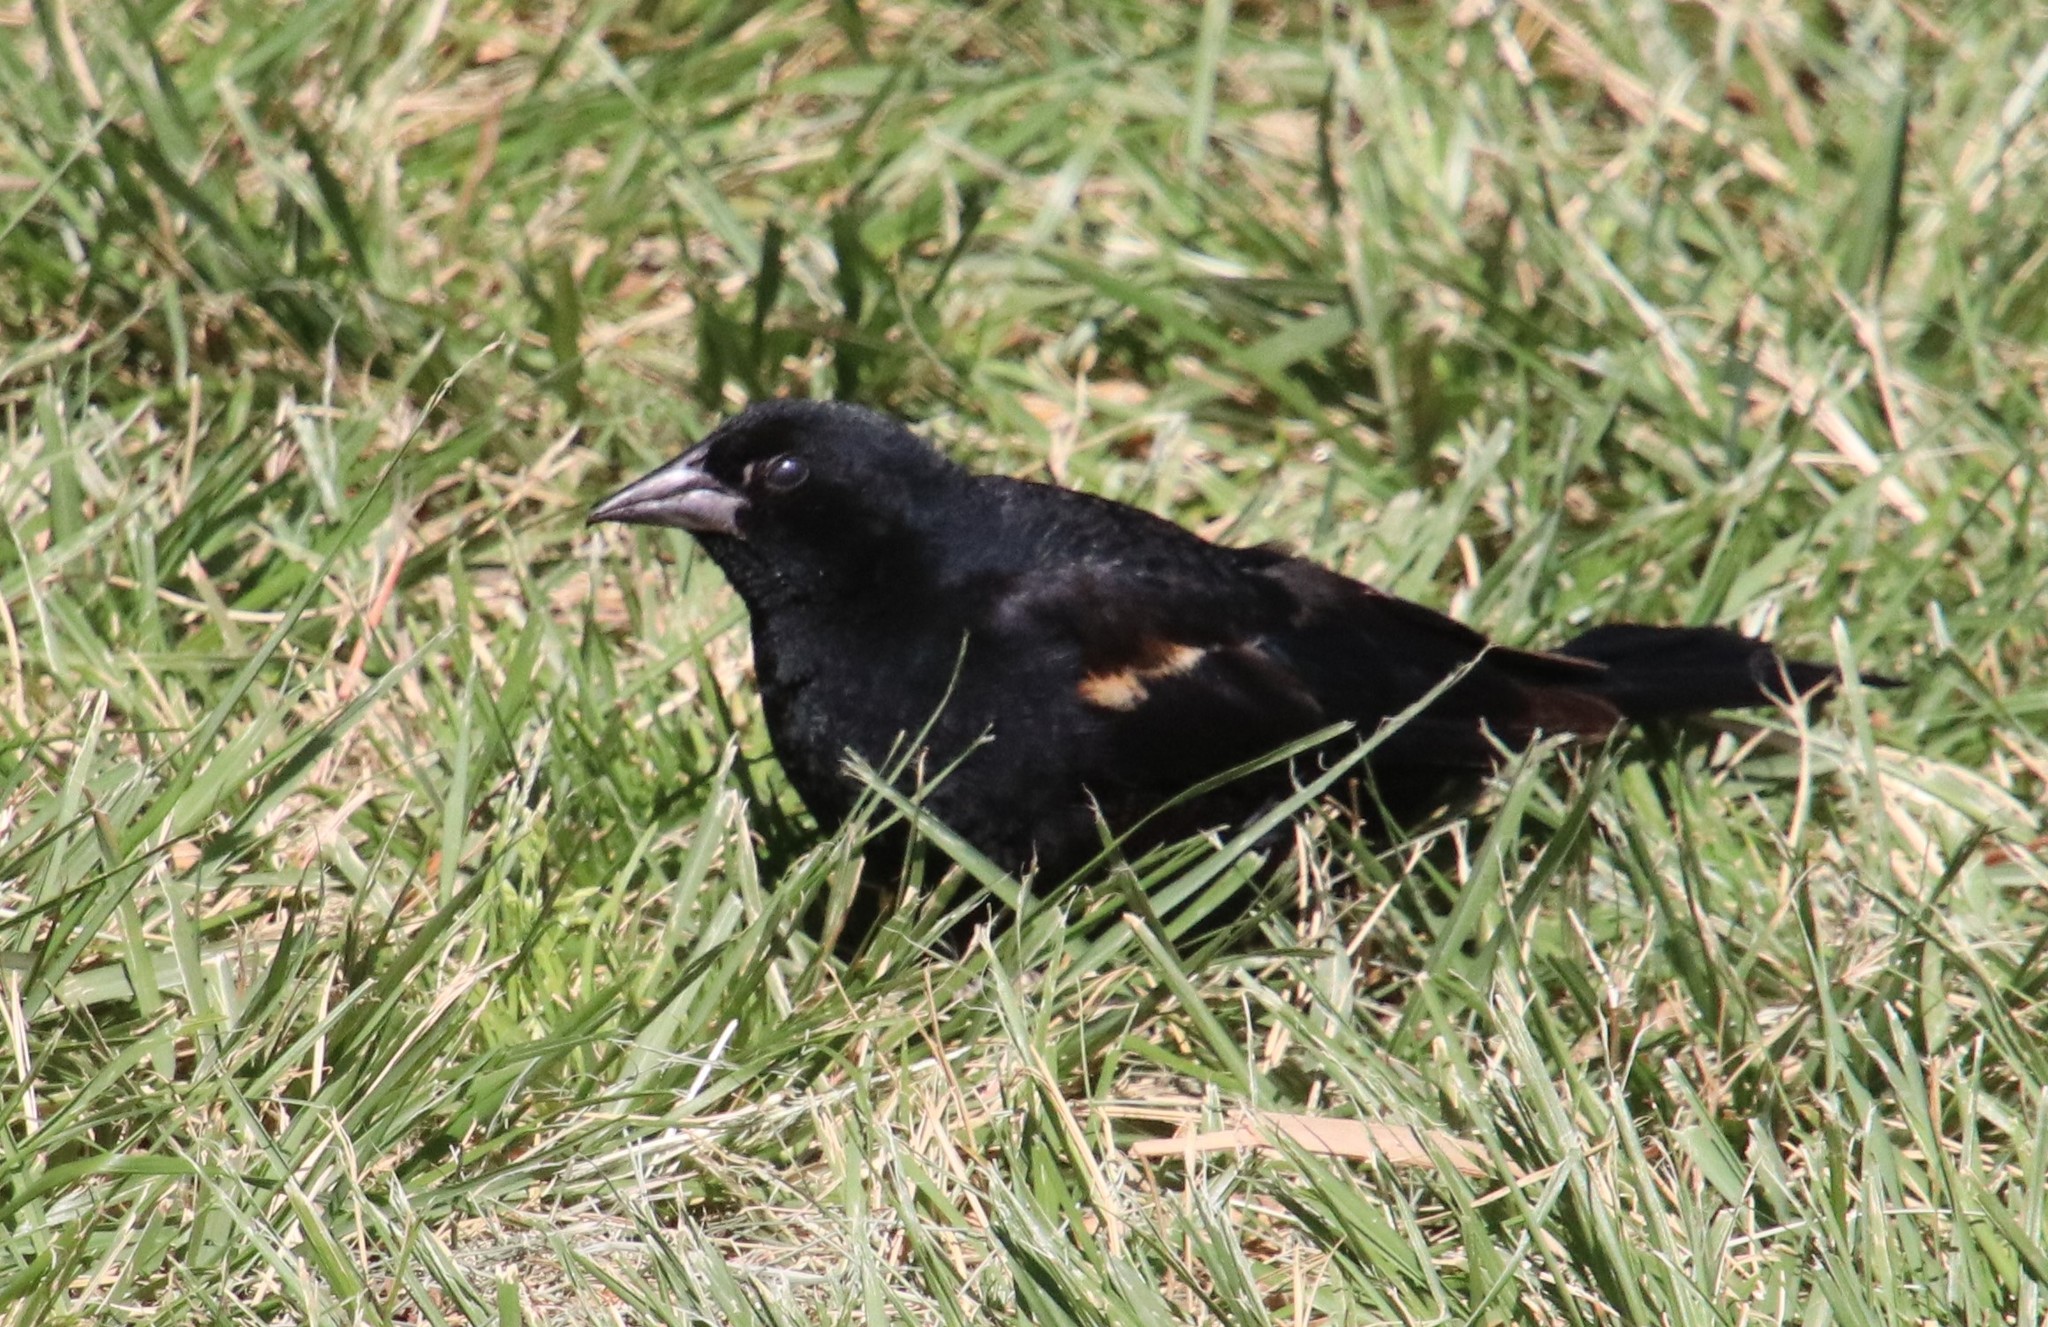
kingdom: Animalia
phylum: Chordata
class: Aves
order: Passeriformes
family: Icteridae
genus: Agelaius
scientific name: Agelaius phoeniceus
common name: Red-winged blackbird
